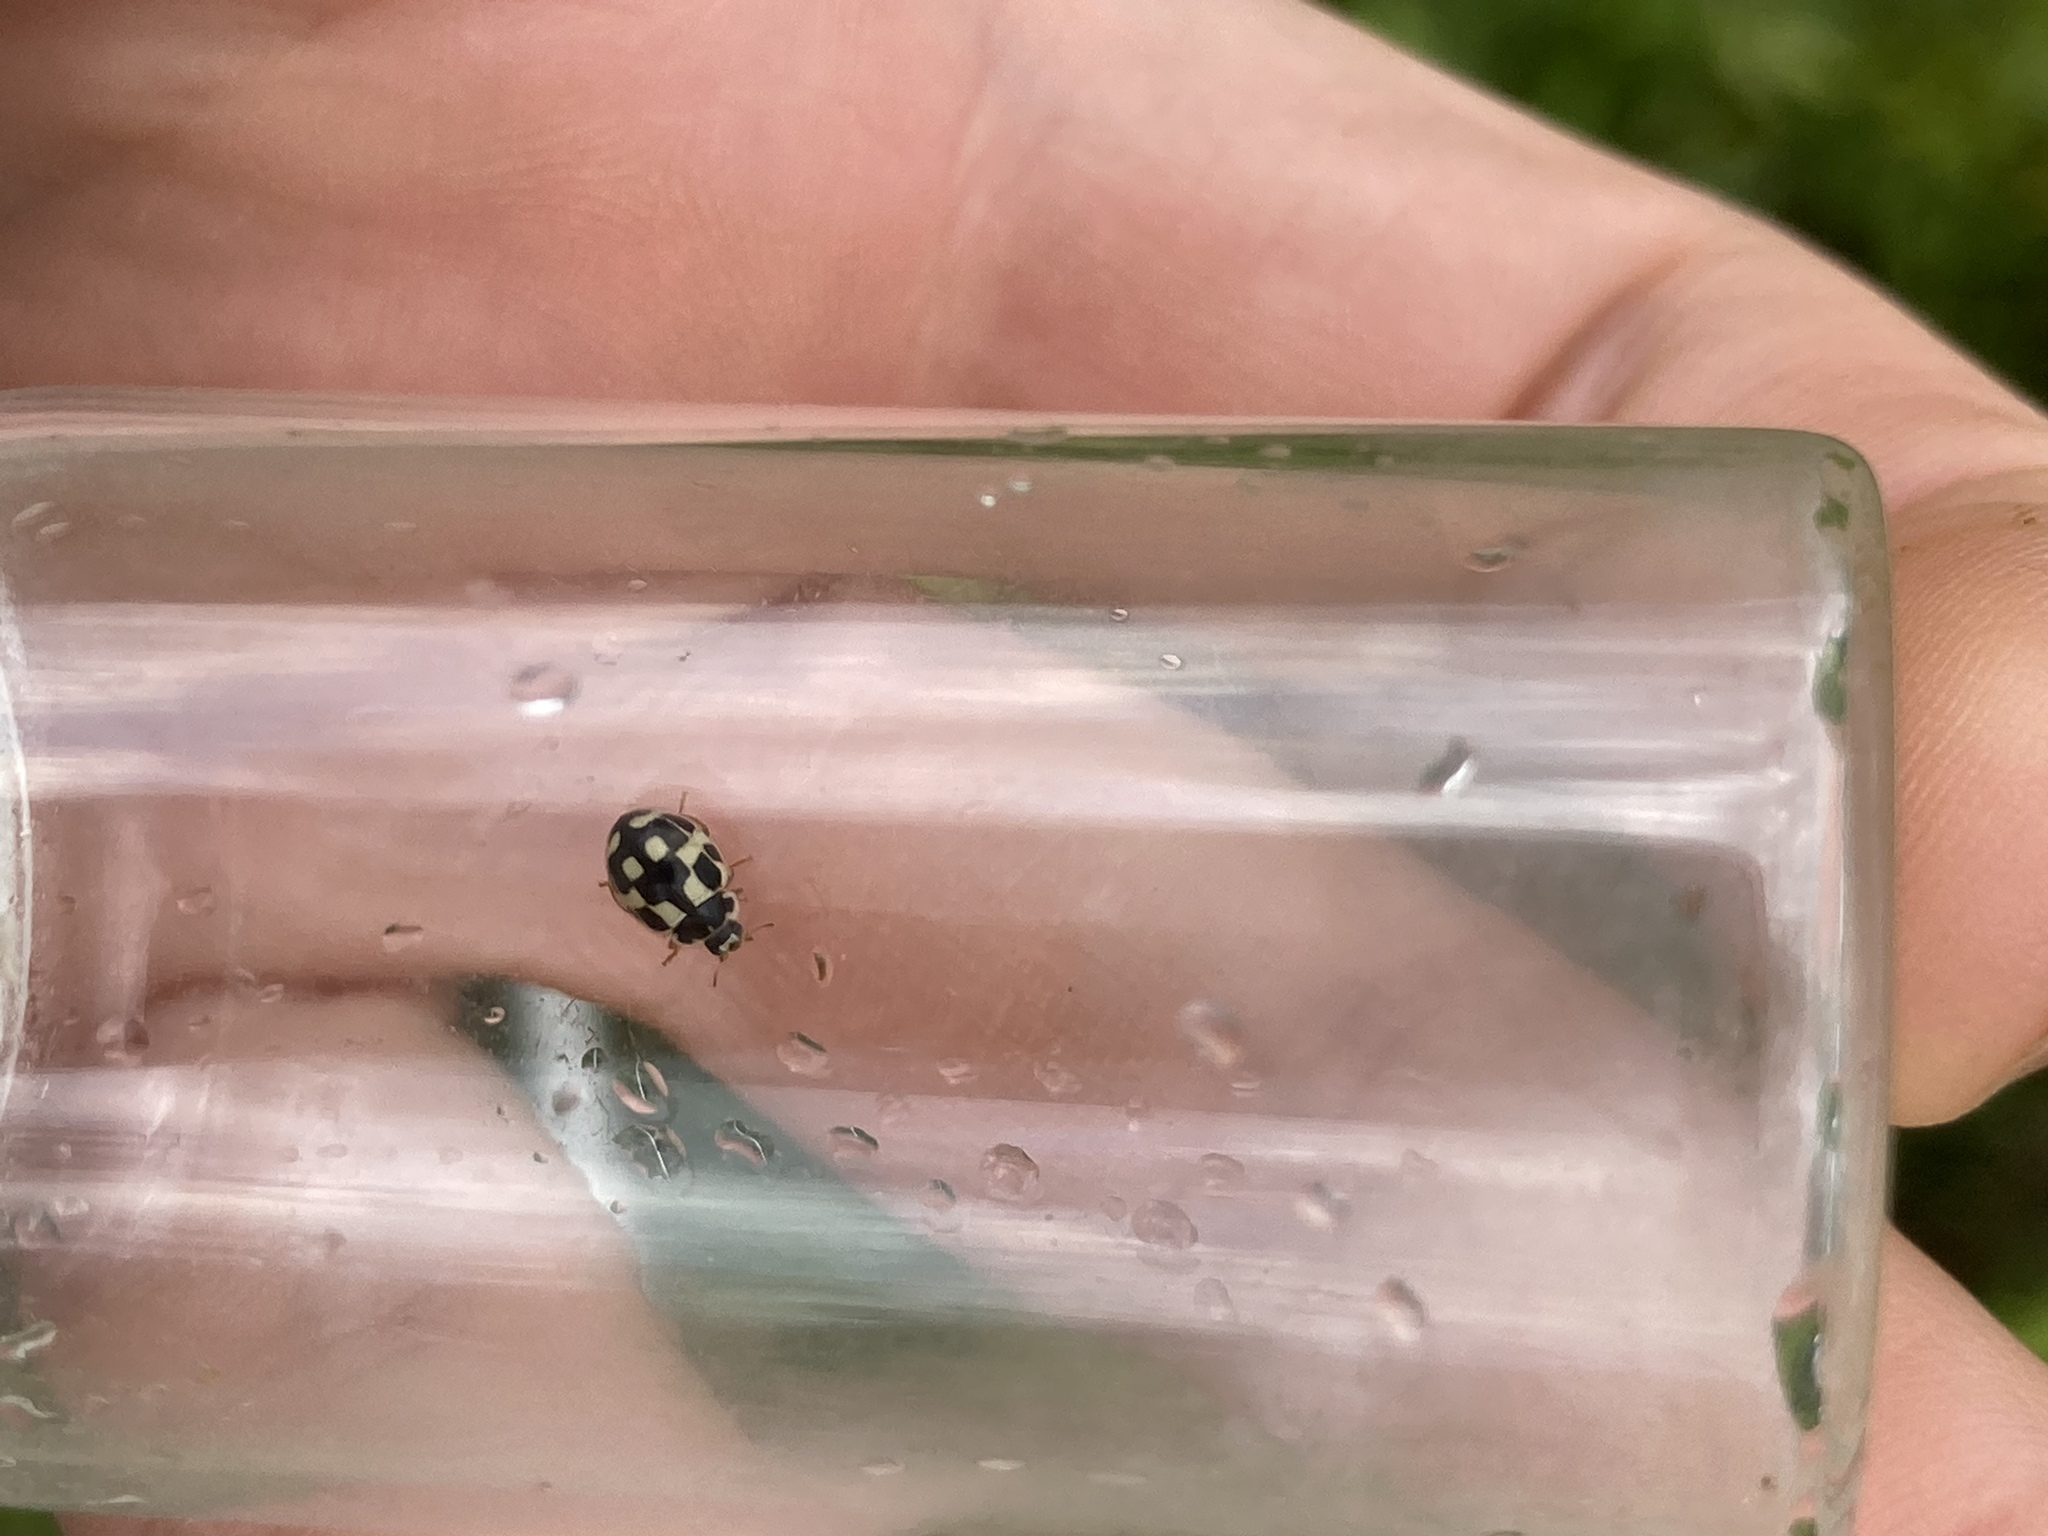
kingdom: Animalia
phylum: Arthropoda
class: Insecta
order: Coleoptera
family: Coccinellidae
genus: Propylaea
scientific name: Propylaea quatuordecimpunctata
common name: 14-spotted ladybird beetle
